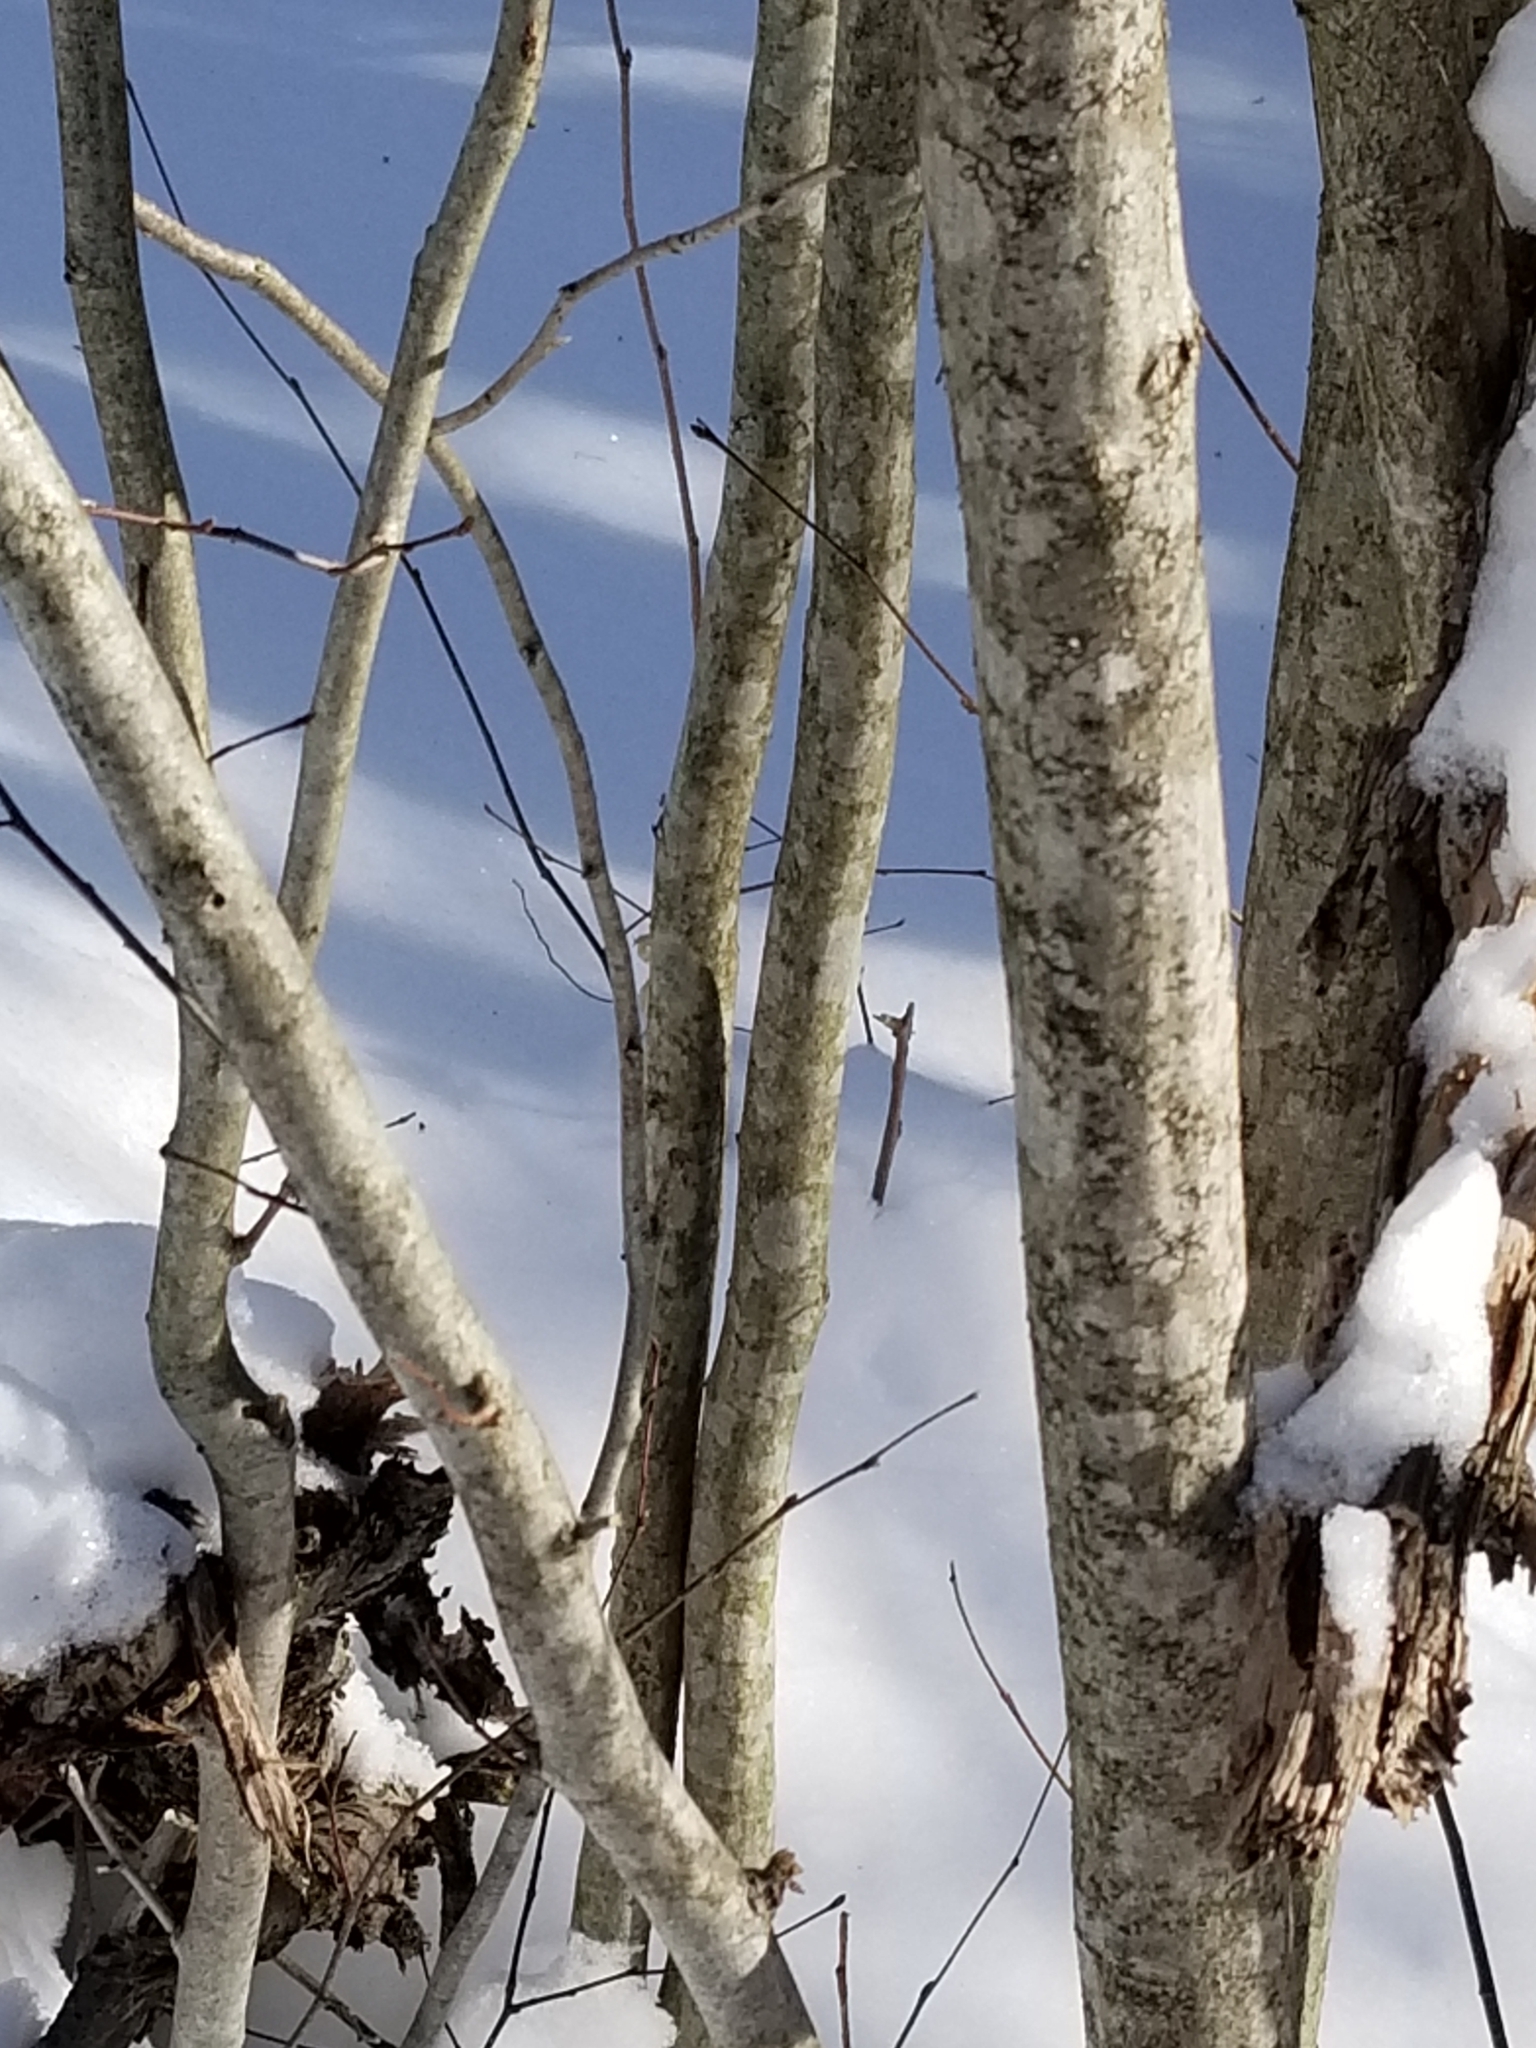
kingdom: Plantae
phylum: Tracheophyta
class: Magnoliopsida
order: Fagales
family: Betulaceae
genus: Carpinus
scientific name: Carpinus caroliniana
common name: American hornbeam
